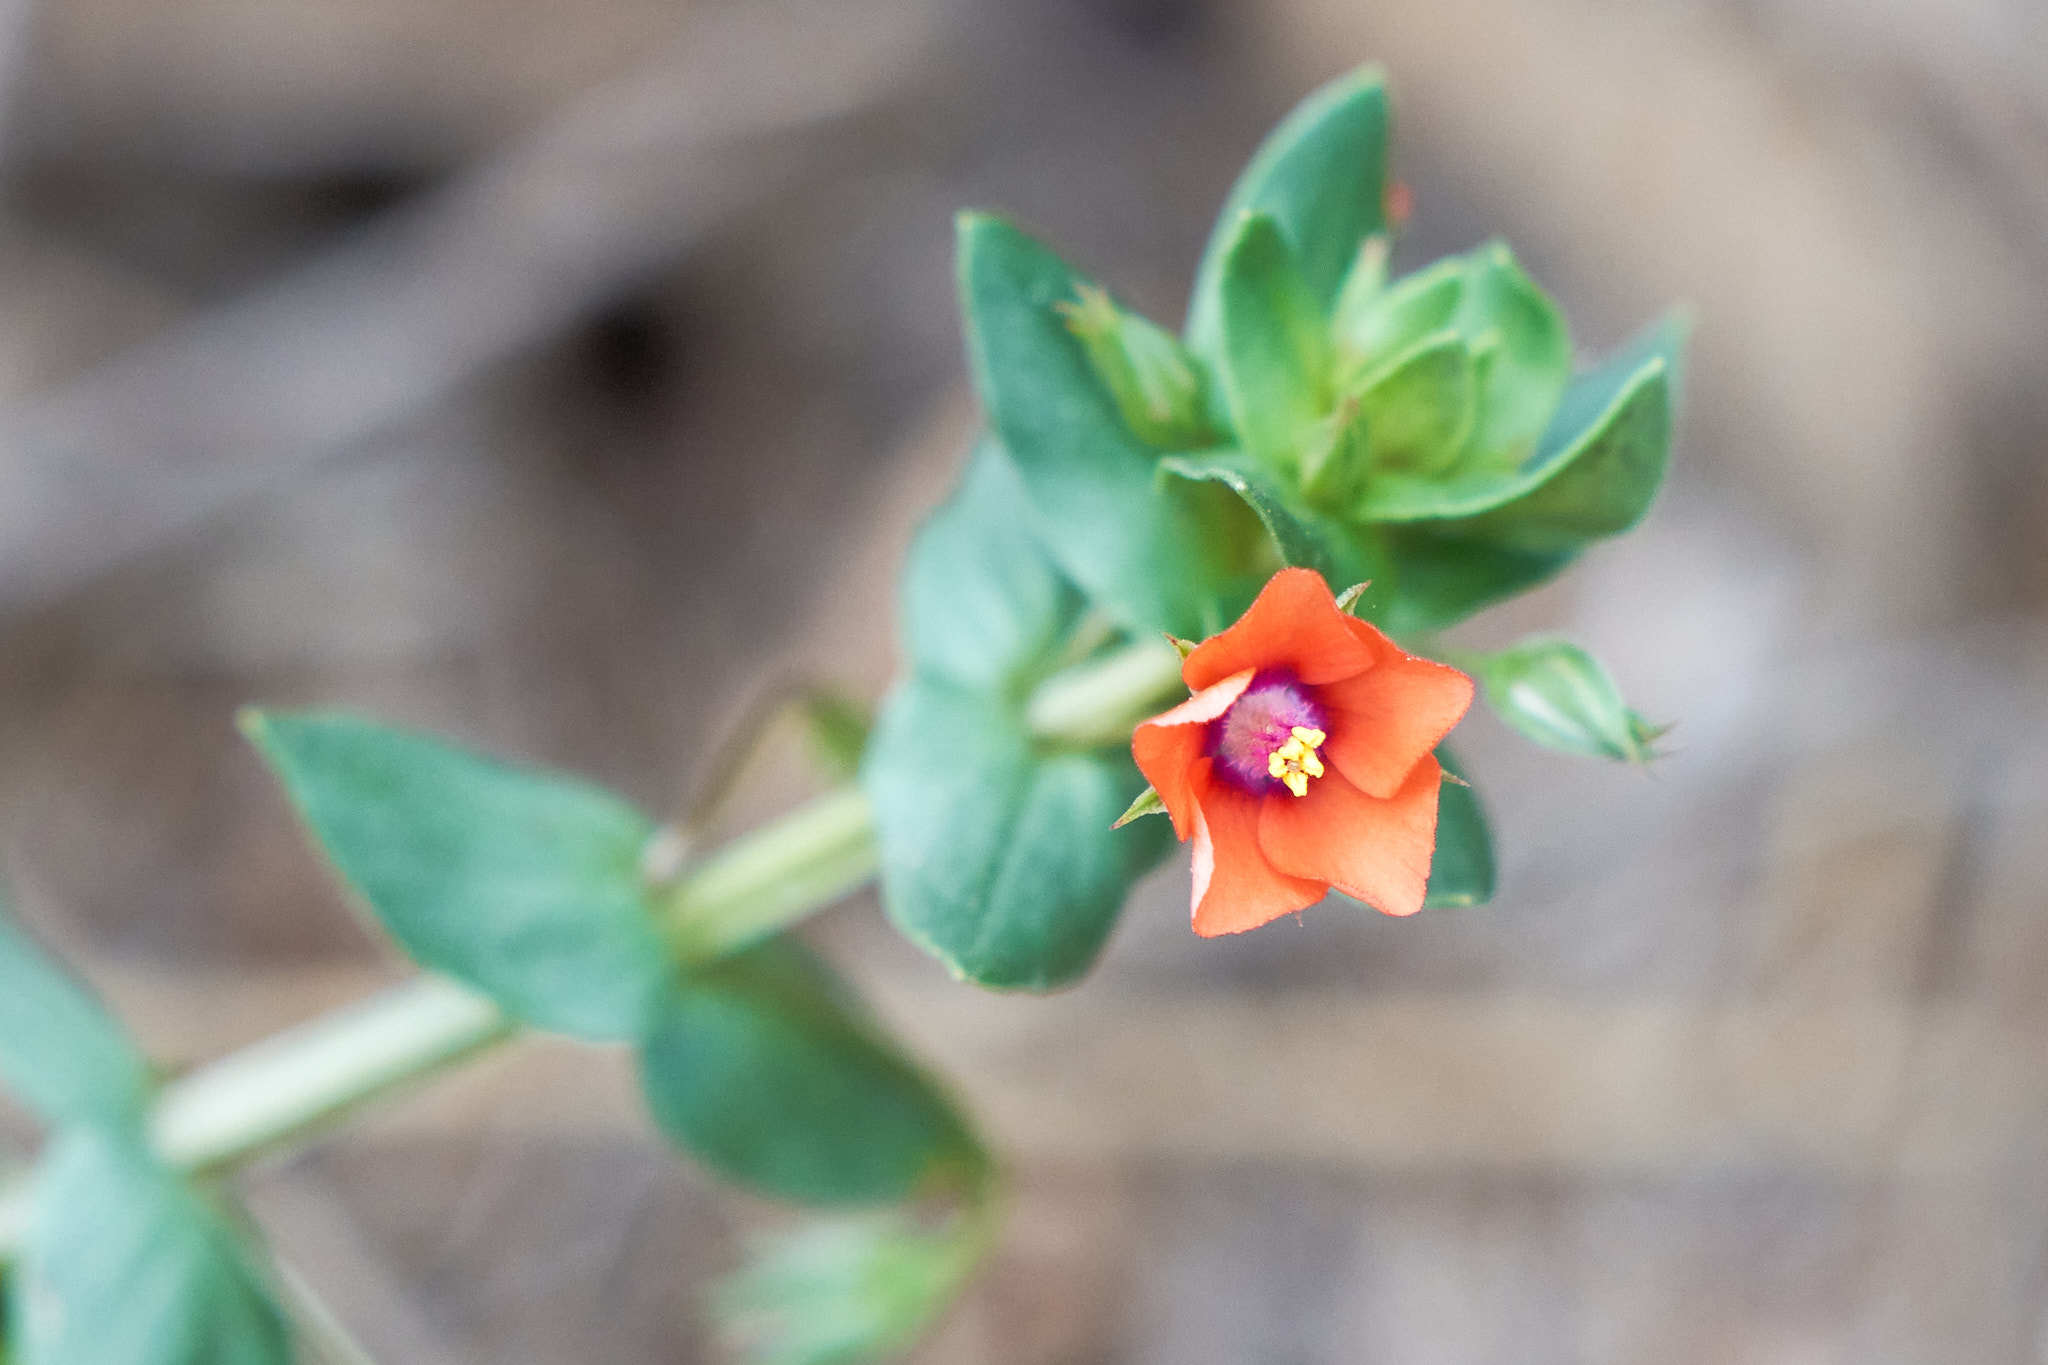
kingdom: Plantae
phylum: Tracheophyta
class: Magnoliopsida
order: Ericales
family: Primulaceae
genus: Lysimachia
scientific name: Lysimachia arvensis
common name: Scarlet pimpernel
